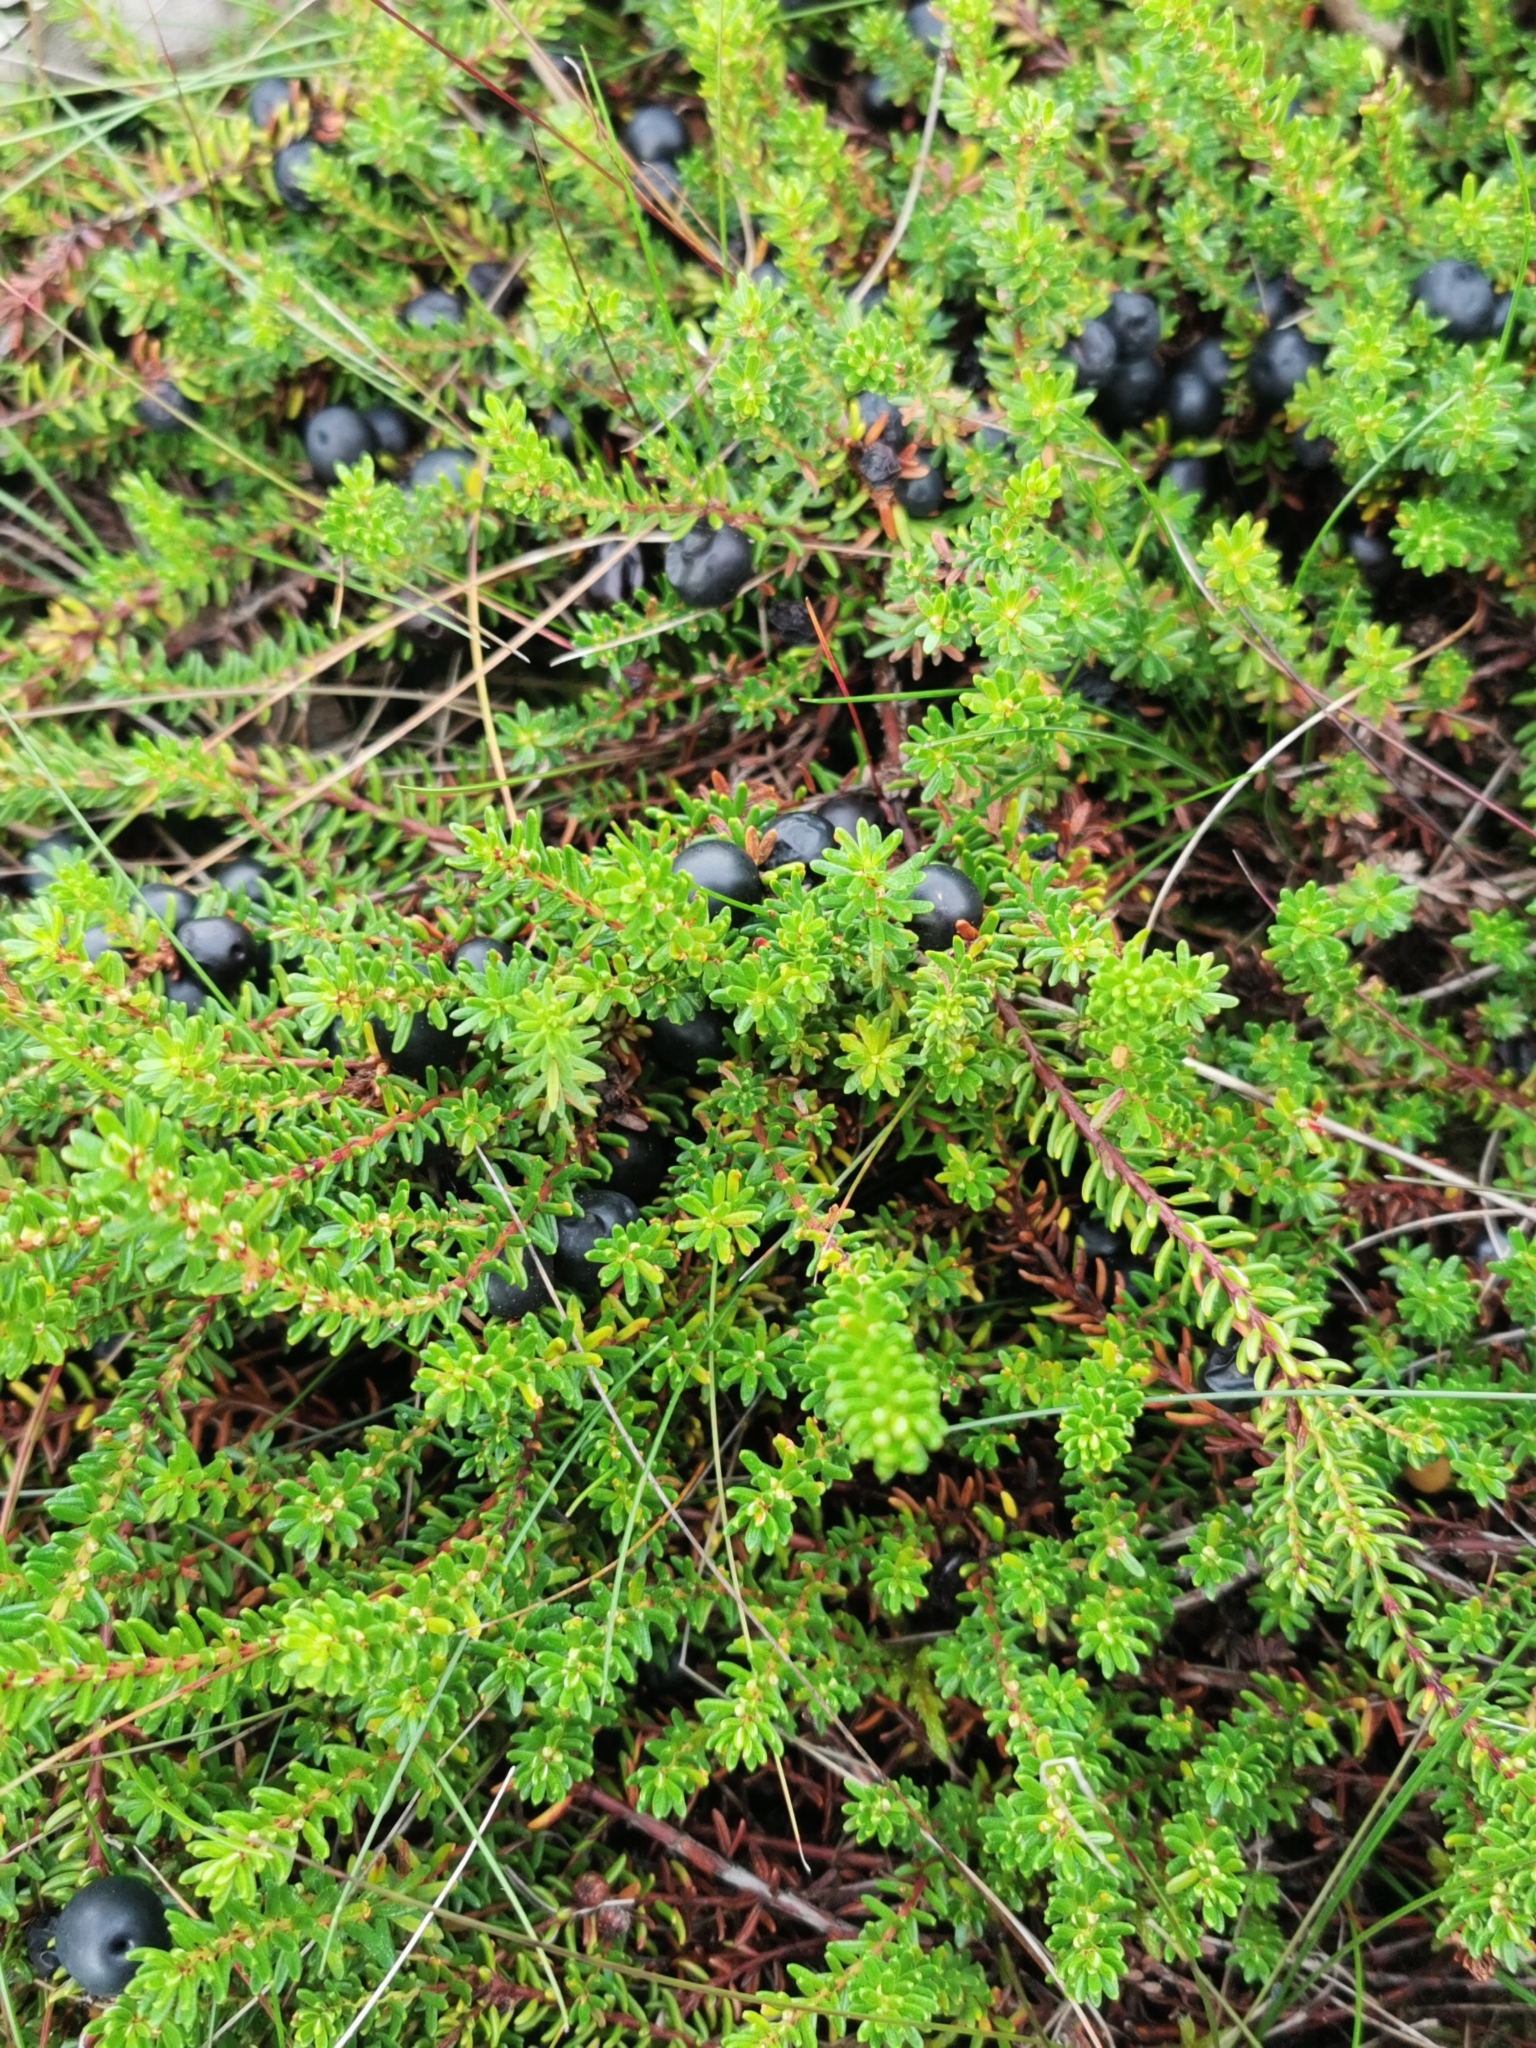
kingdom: Plantae
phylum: Tracheophyta
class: Magnoliopsida
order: Ericales
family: Ericaceae
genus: Empetrum
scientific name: Empetrum nigrum
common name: Black crowberry
